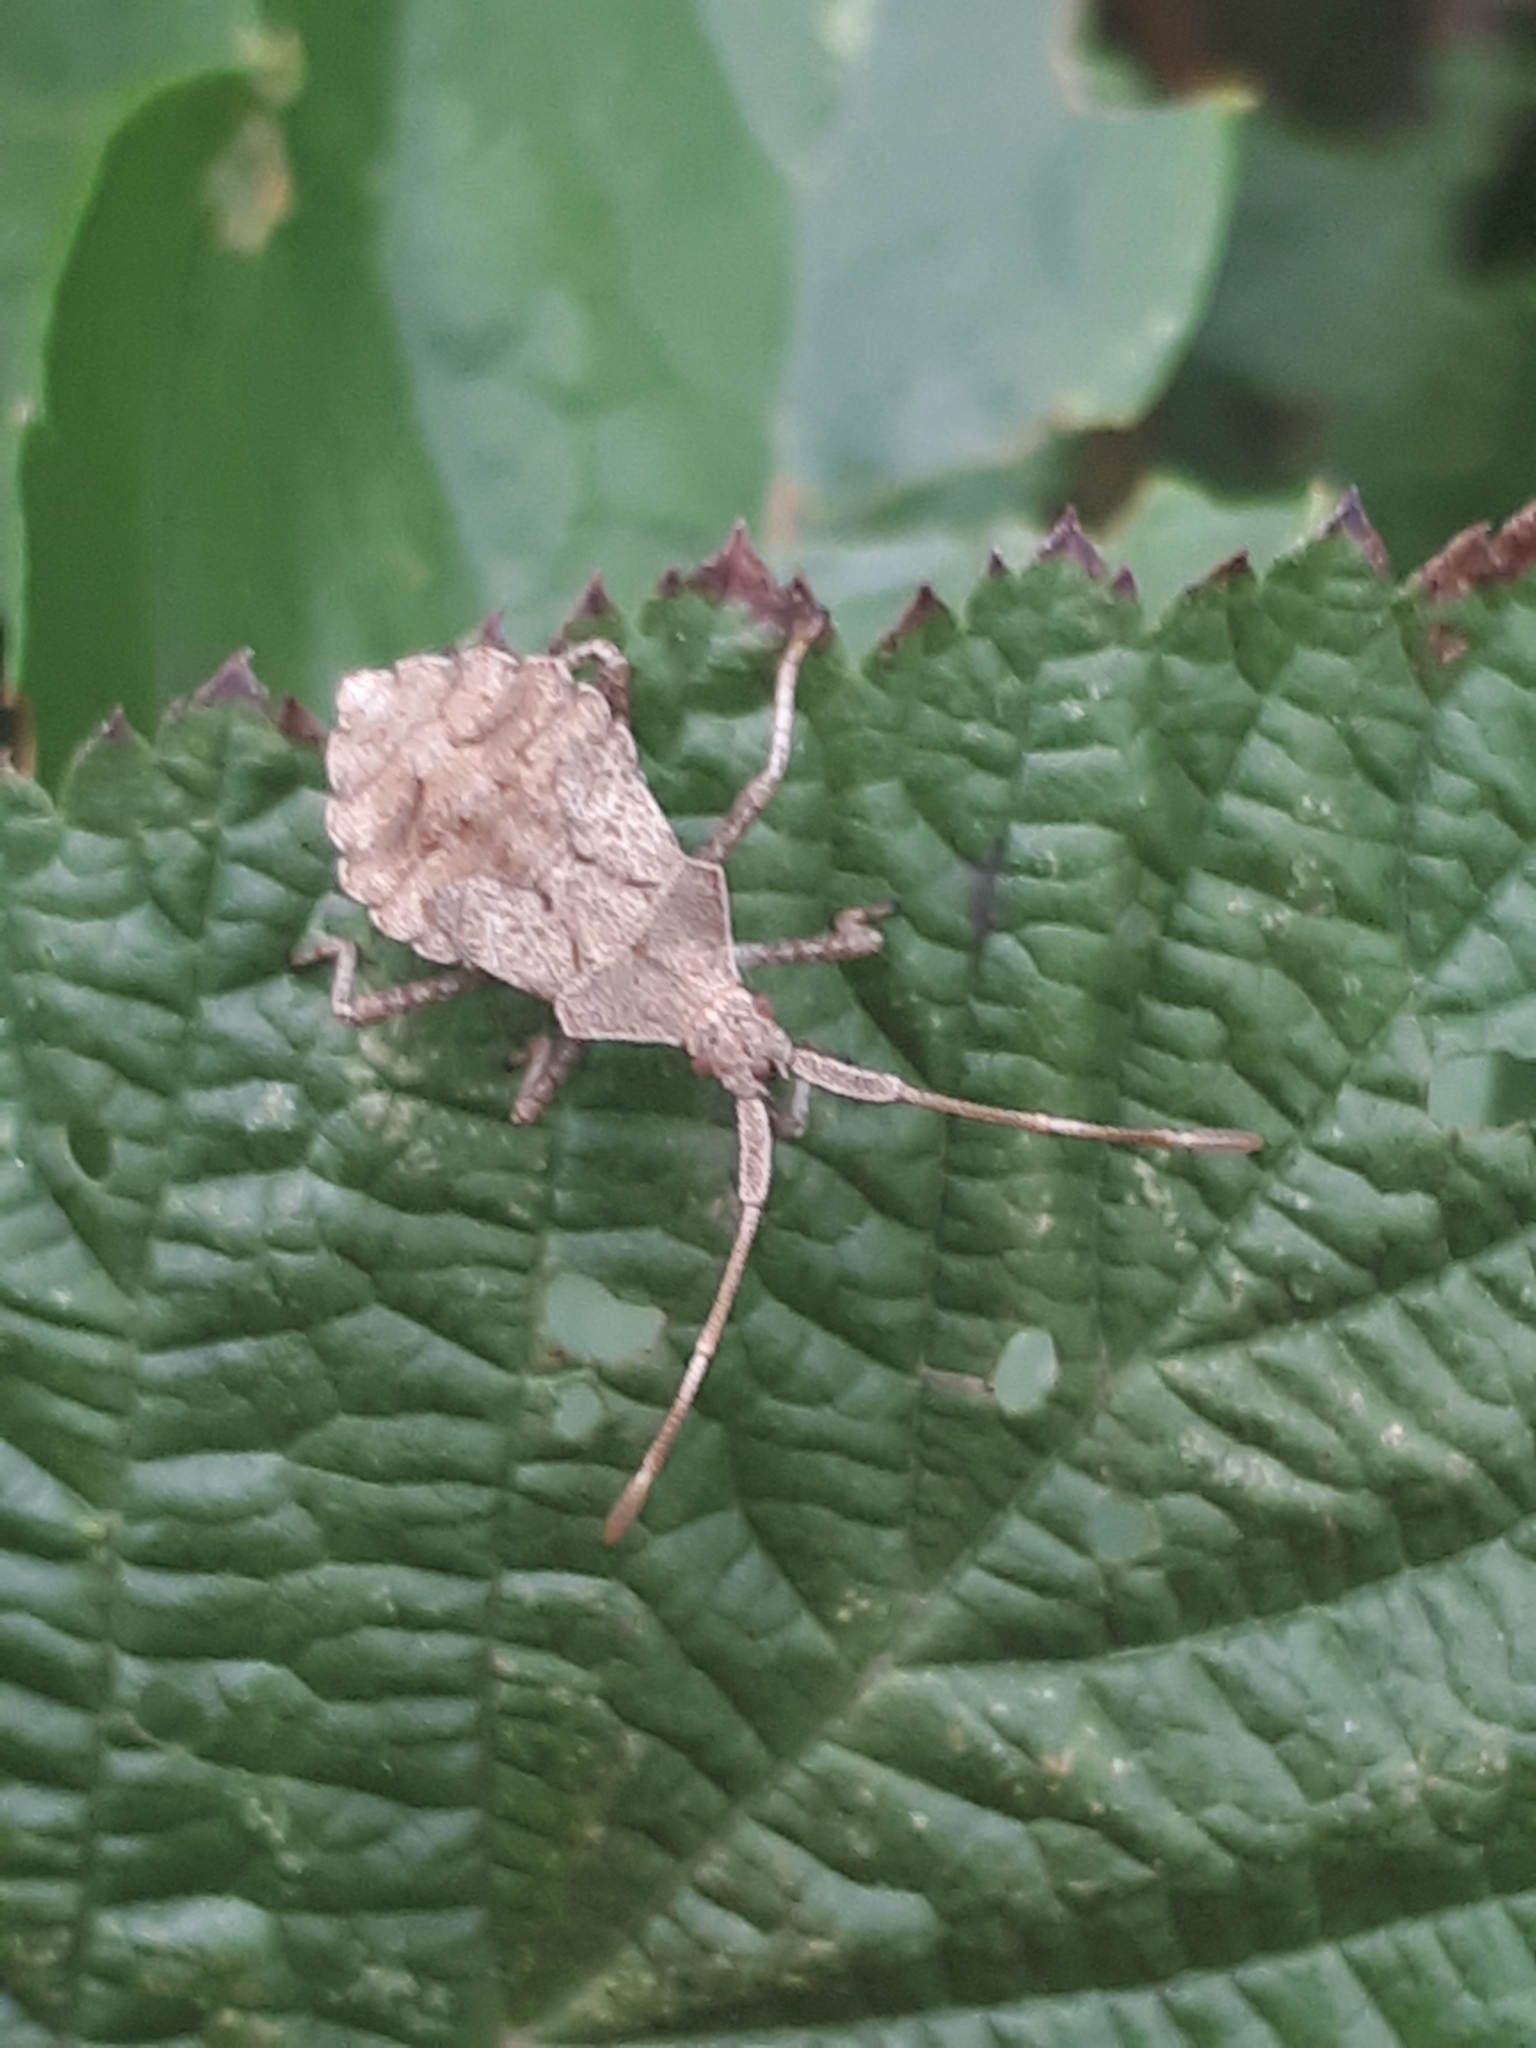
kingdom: Animalia
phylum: Arthropoda
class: Insecta
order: Hemiptera
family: Coreidae
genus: Coreus
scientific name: Coreus marginatus
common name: Dock bug
